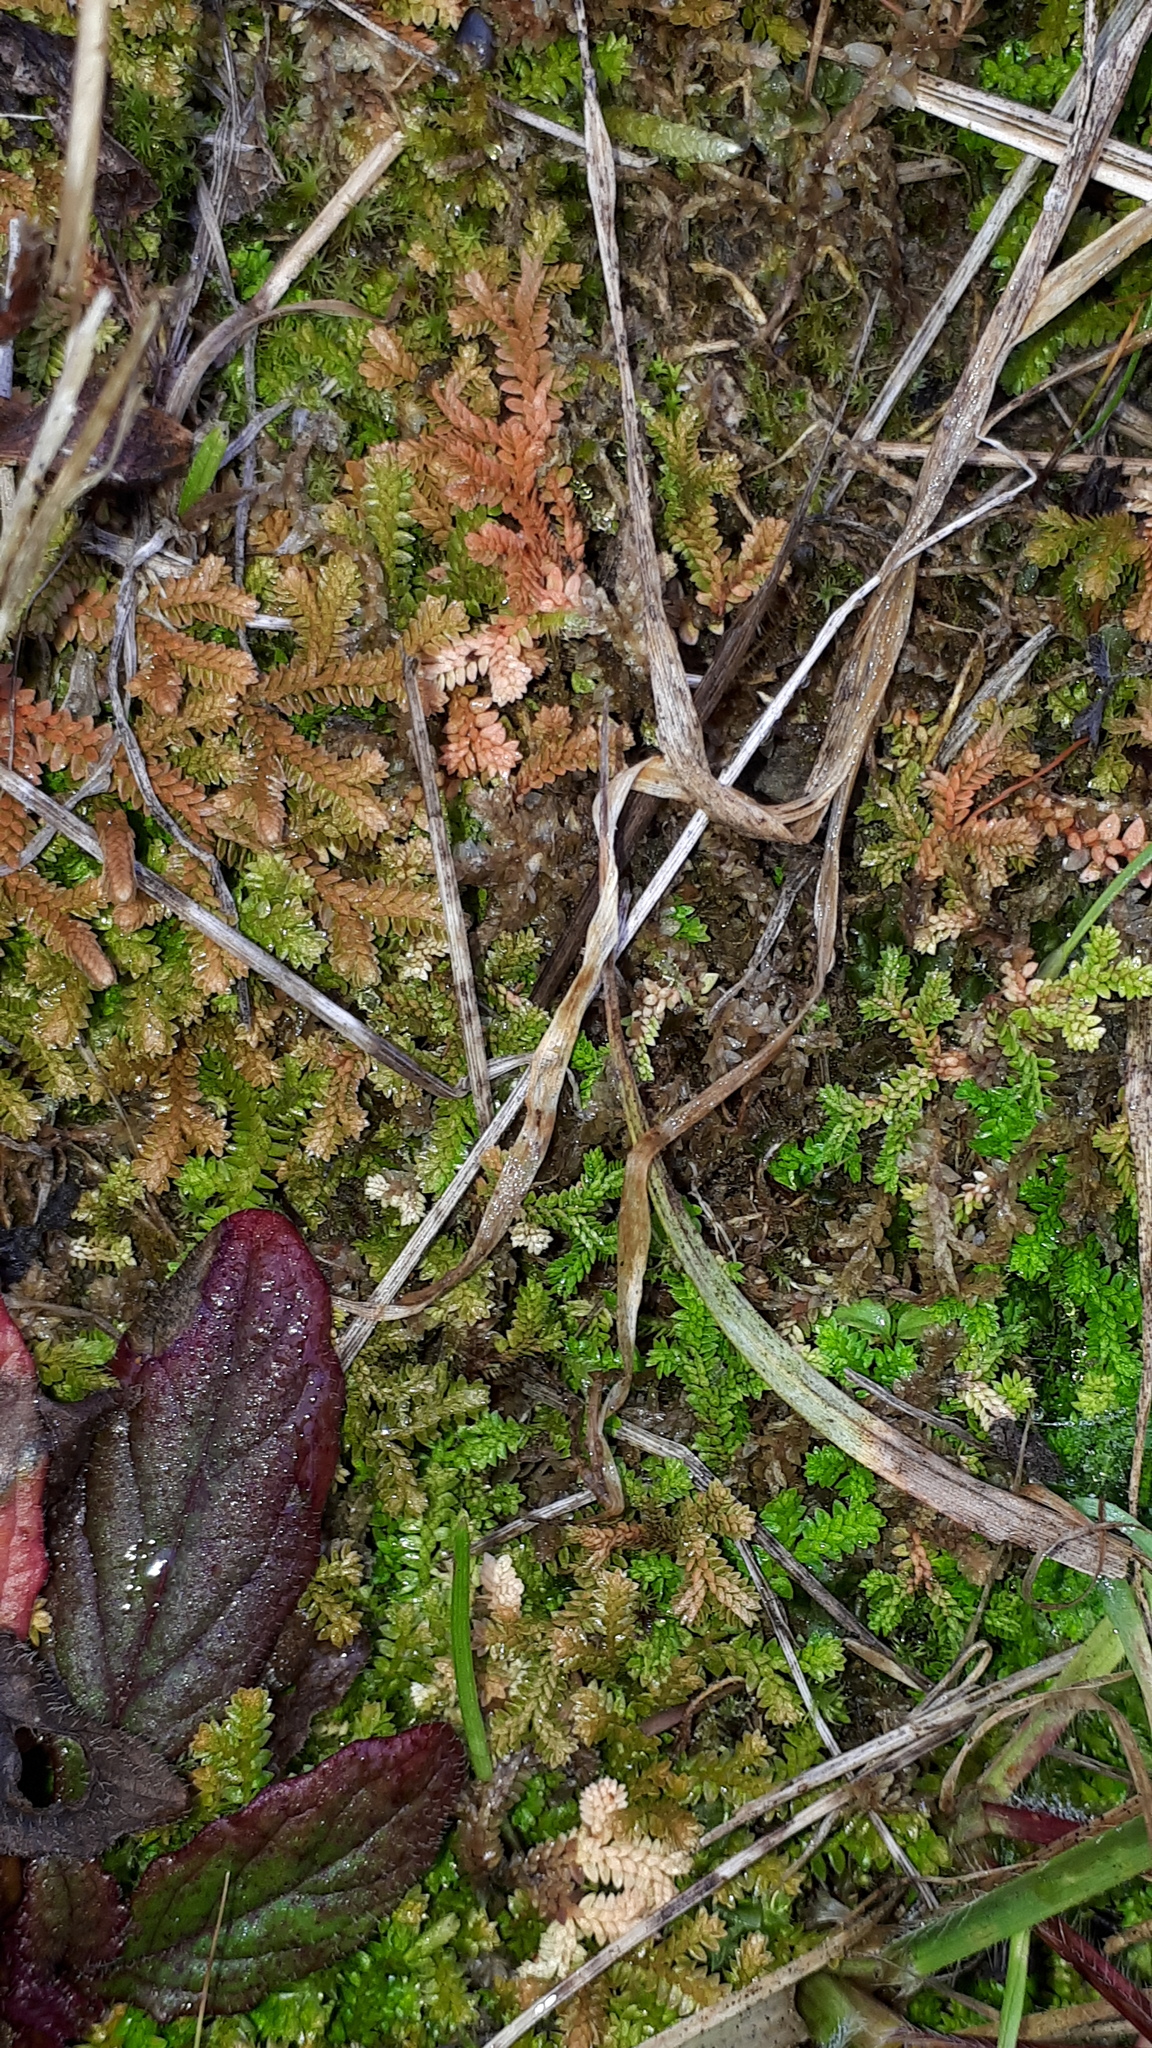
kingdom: Plantae
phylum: Tracheophyta
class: Lycopodiopsida
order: Selaginellales
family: Selaginellaceae
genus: Selaginella
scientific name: Selaginella helvetica
